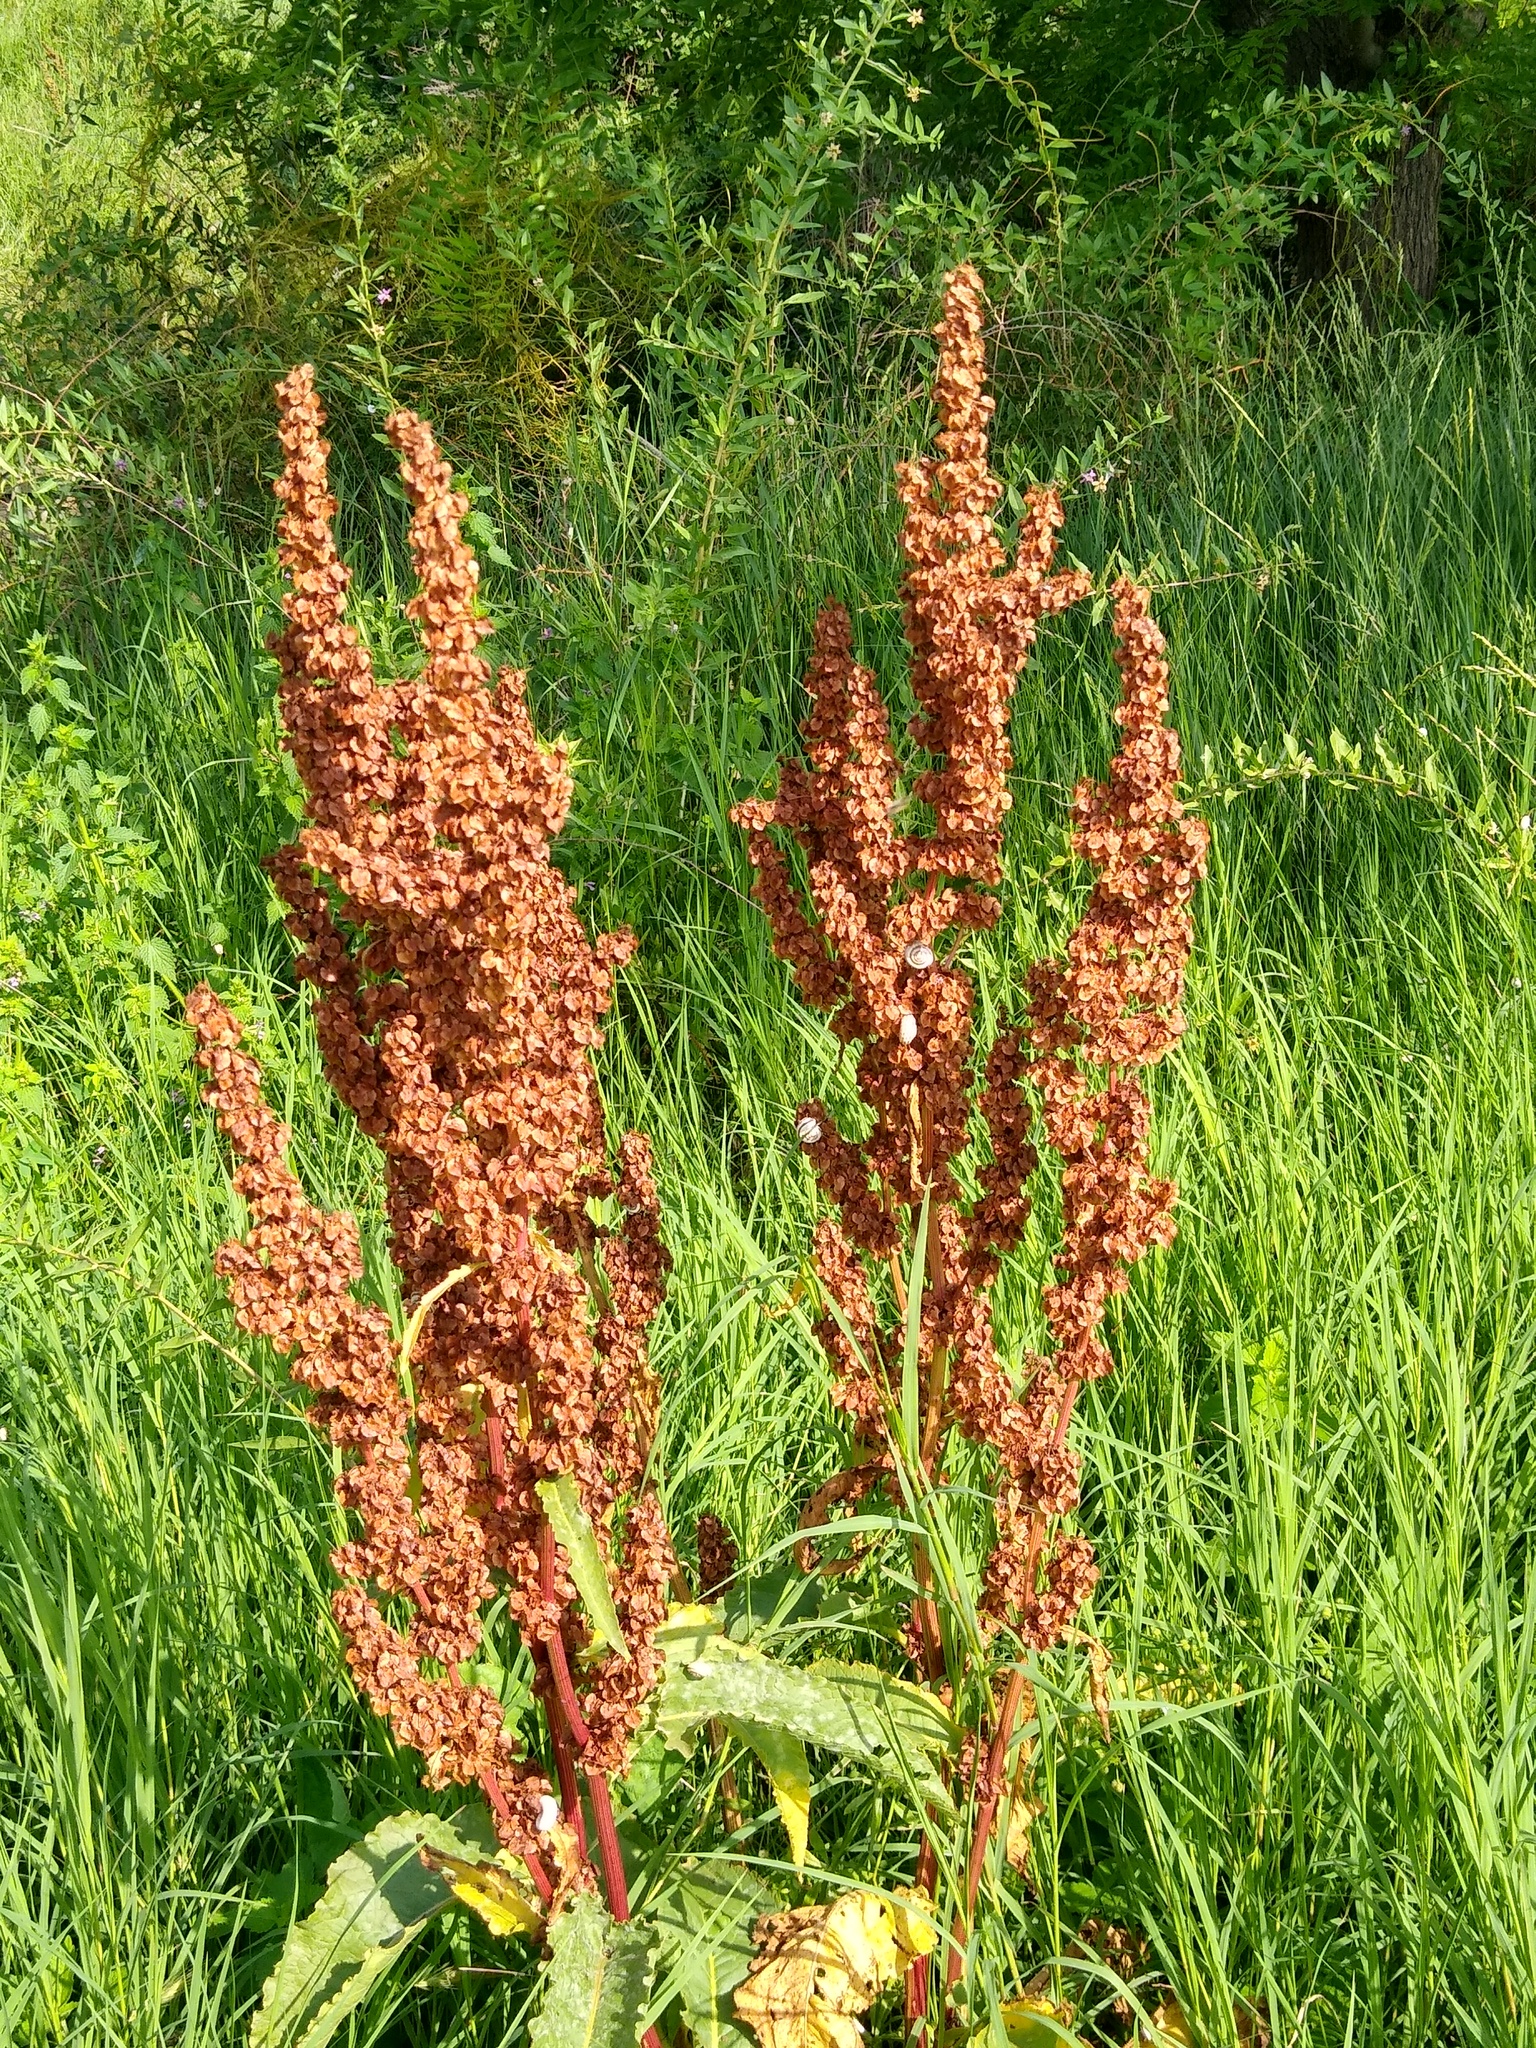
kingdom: Plantae
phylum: Tracheophyta
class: Magnoliopsida
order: Caryophyllales
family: Polygonaceae
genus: Rumex
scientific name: Rumex confertus
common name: Russian dock
